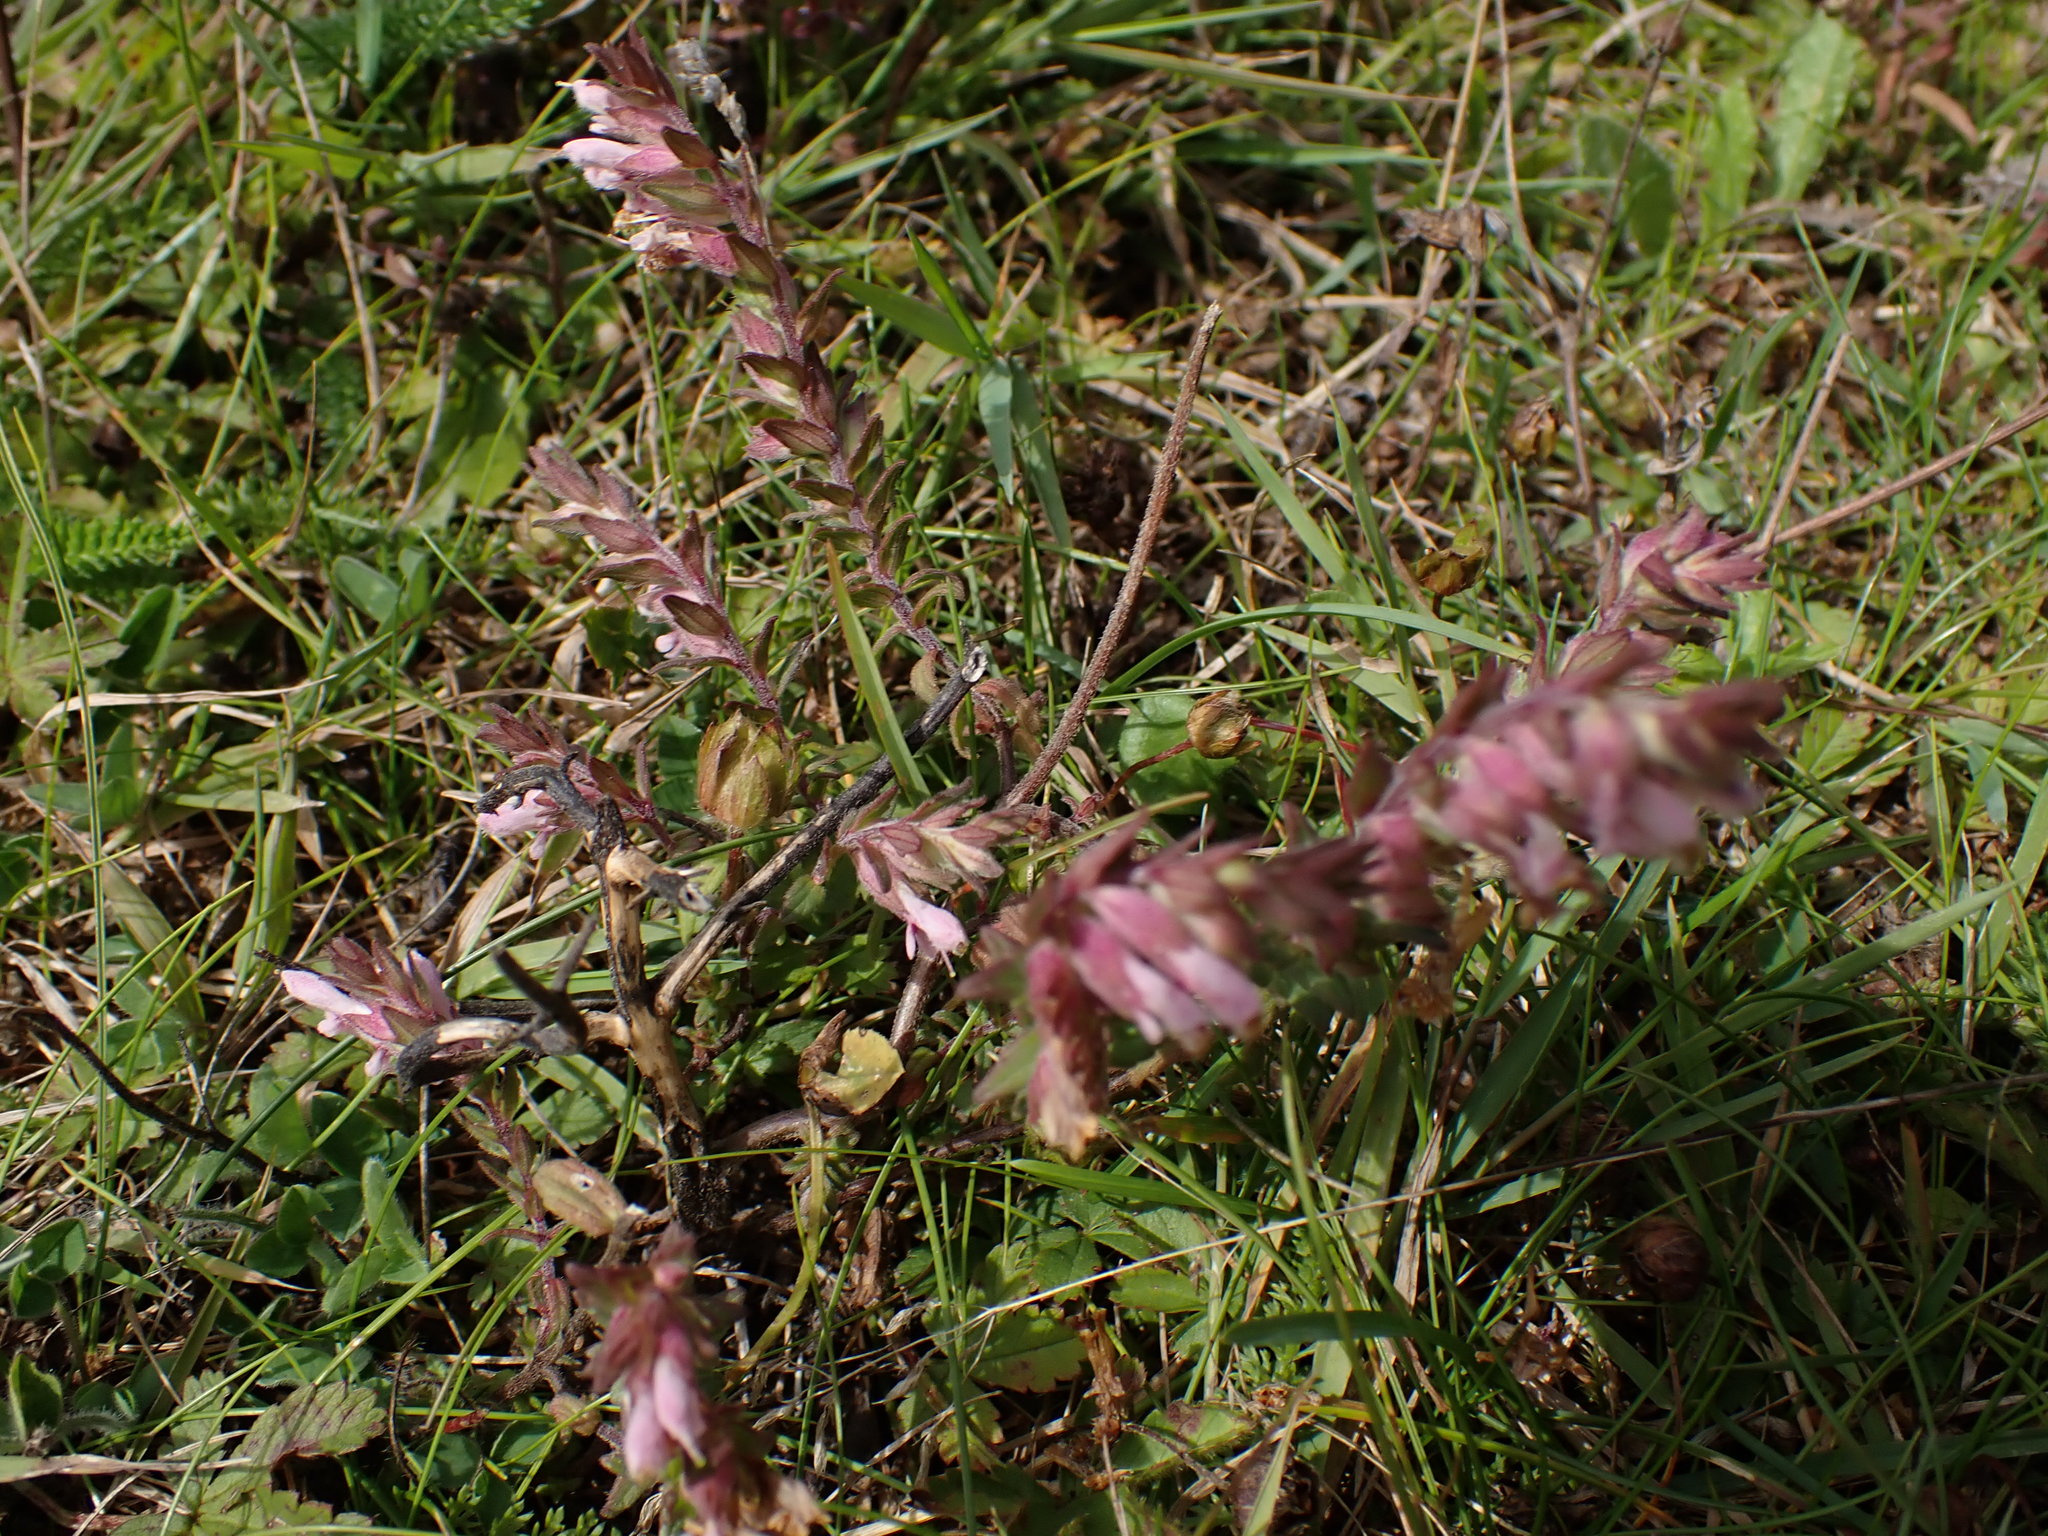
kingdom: Plantae
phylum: Tracheophyta
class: Magnoliopsida
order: Lamiales
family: Orobanchaceae
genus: Odontites
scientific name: Odontites vulgaris
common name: Broomrape
